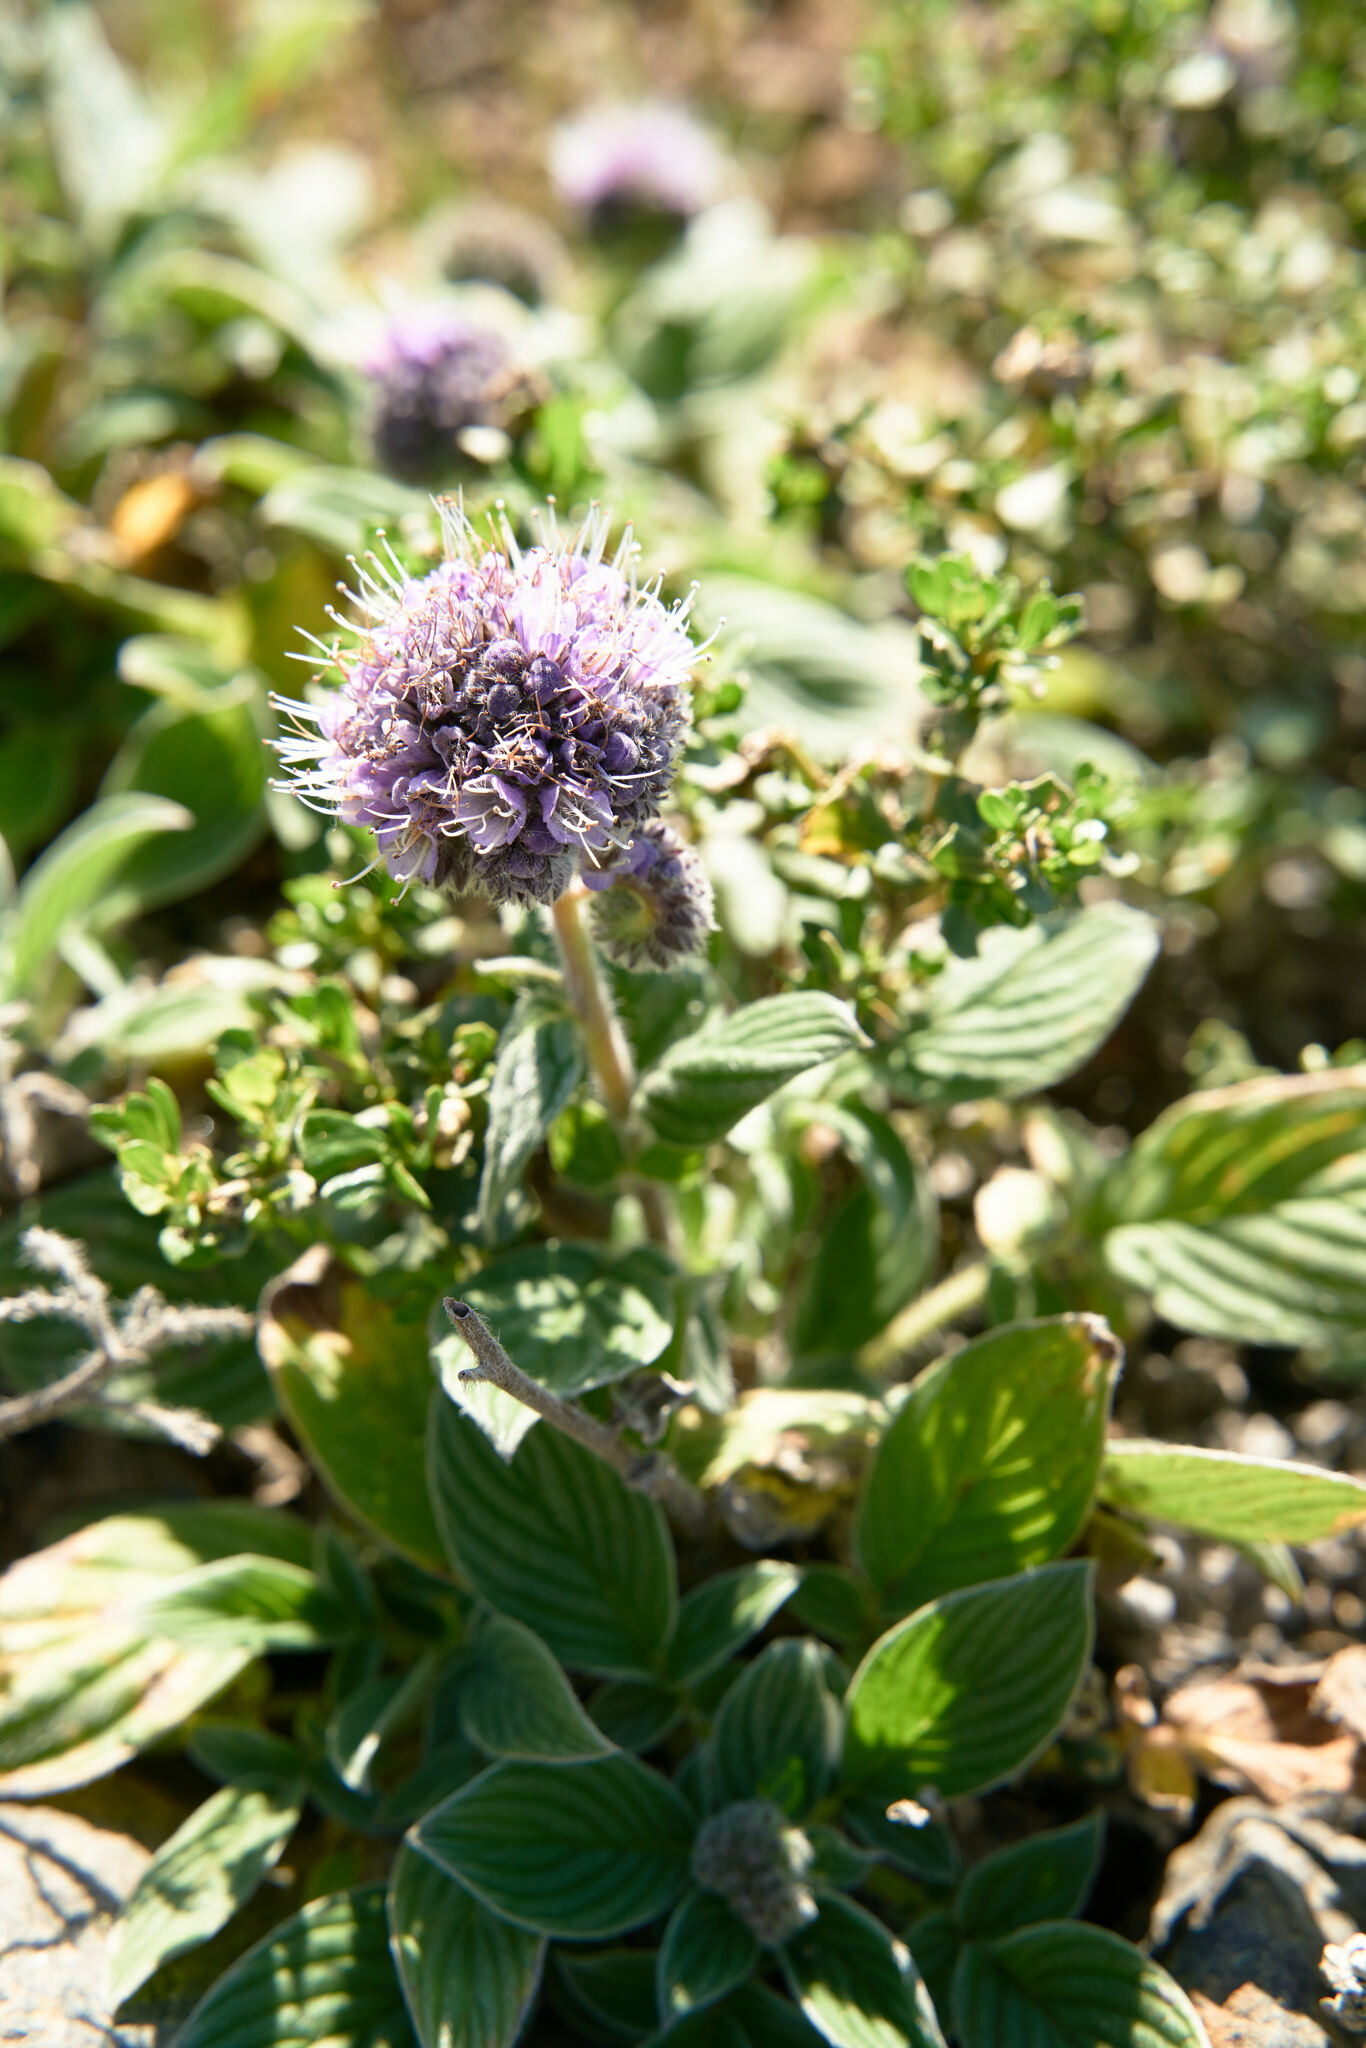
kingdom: Plantae
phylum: Tracheophyta
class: Magnoliopsida
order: Boraginales
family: Hydrophyllaceae
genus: Phacelia
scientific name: Phacelia californica
